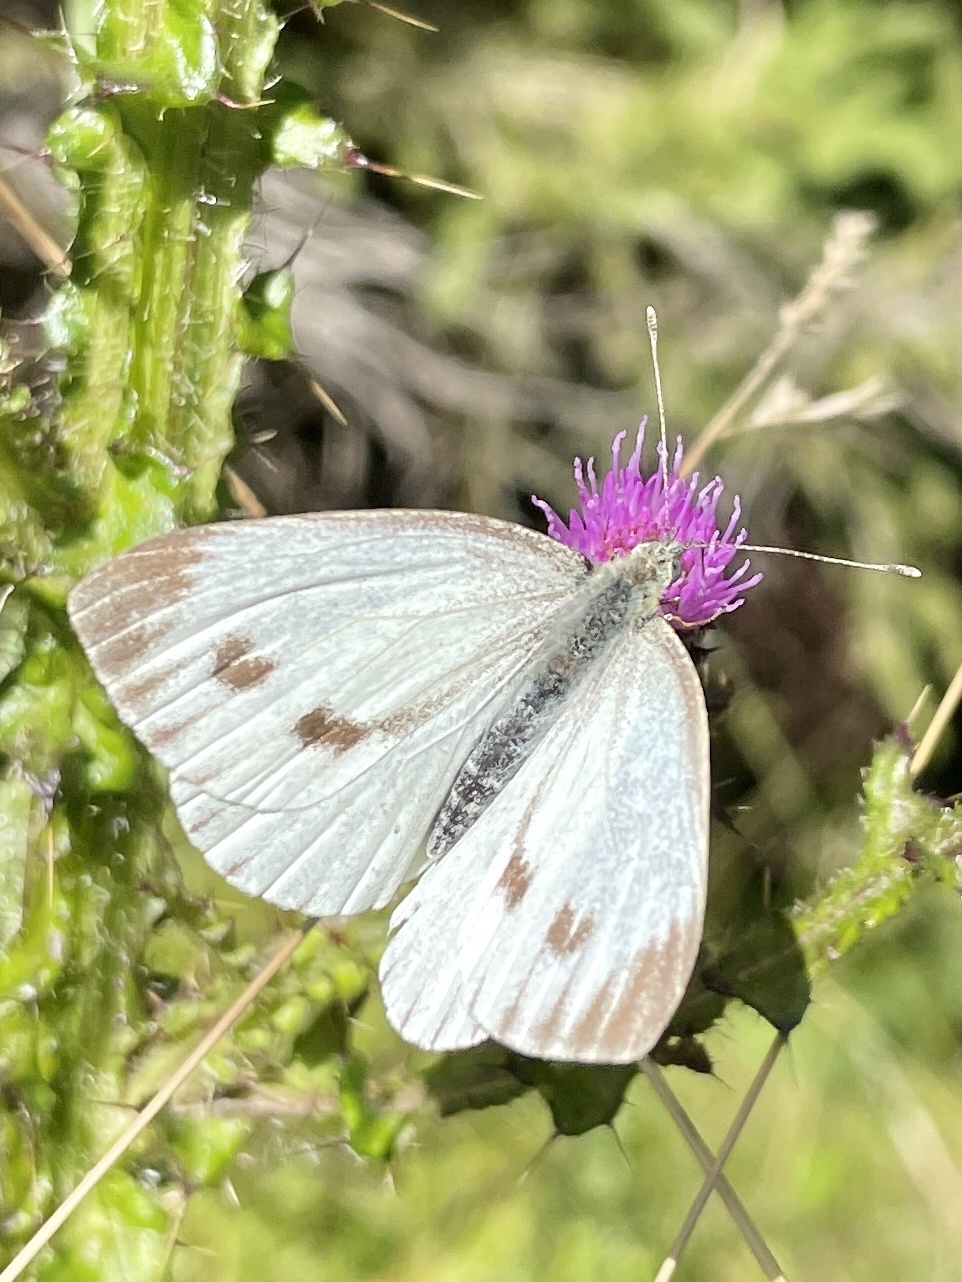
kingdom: Animalia
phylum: Arthropoda
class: Insecta
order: Lepidoptera
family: Pieridae
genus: Pieris
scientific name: Pieris napi
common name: Green-veined white
